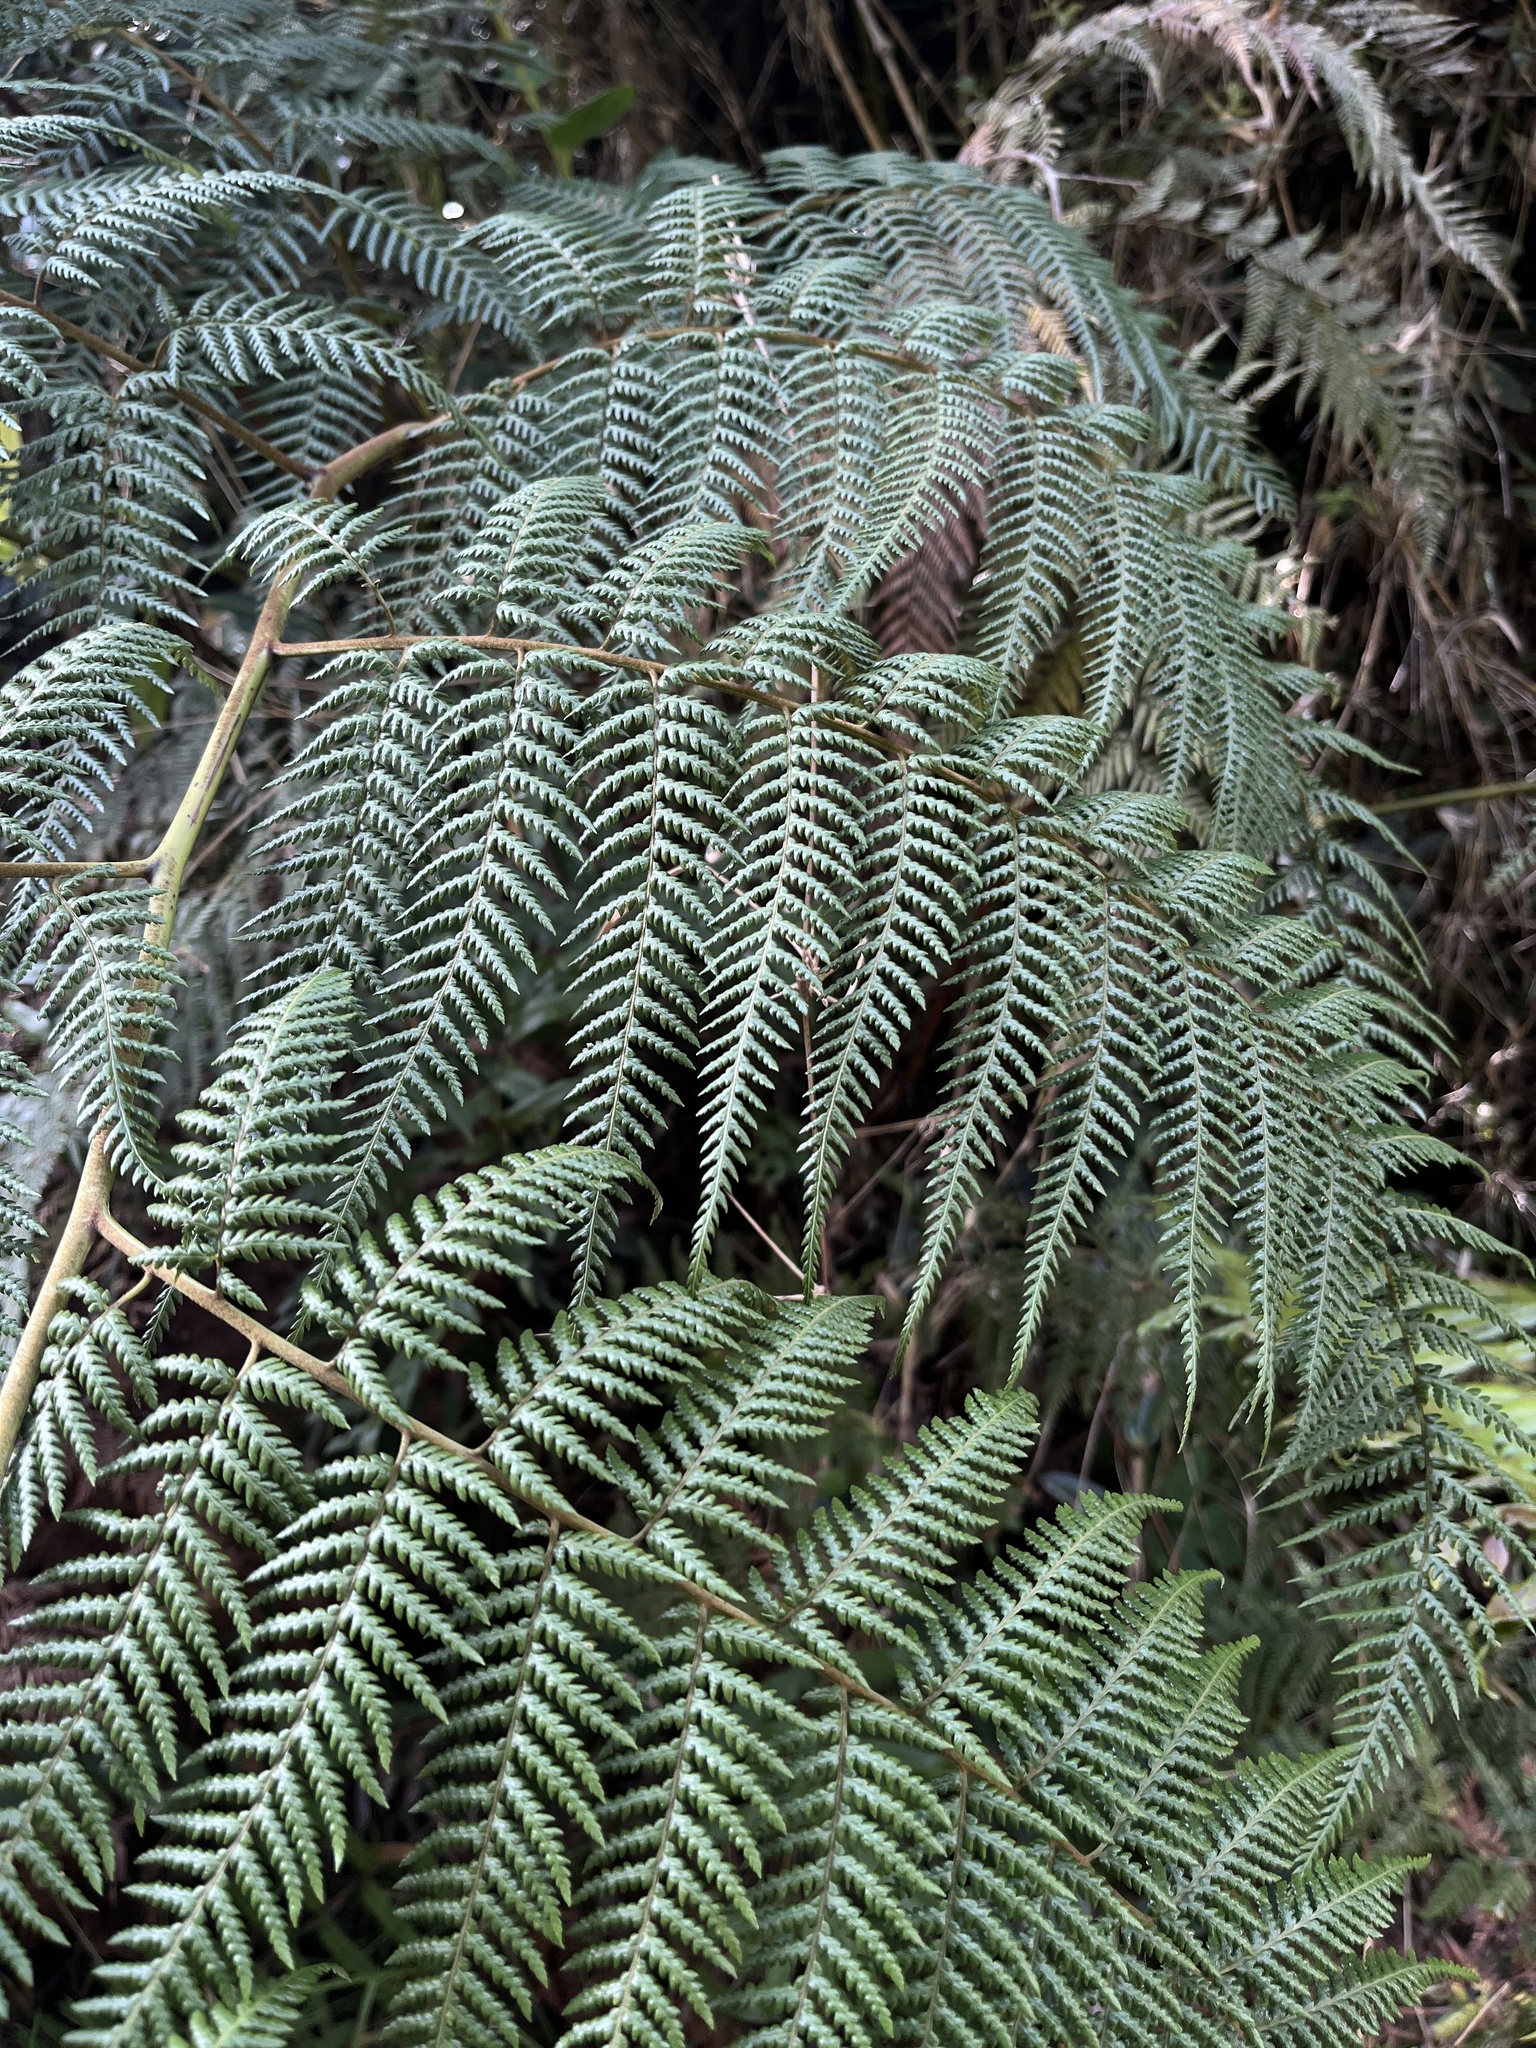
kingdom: Plantae
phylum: Tracheophyta
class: Polypodiopsida
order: Cyatheales
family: Dicksoniaceae
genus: Lophosoria
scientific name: Lophosoria quadripinnata
